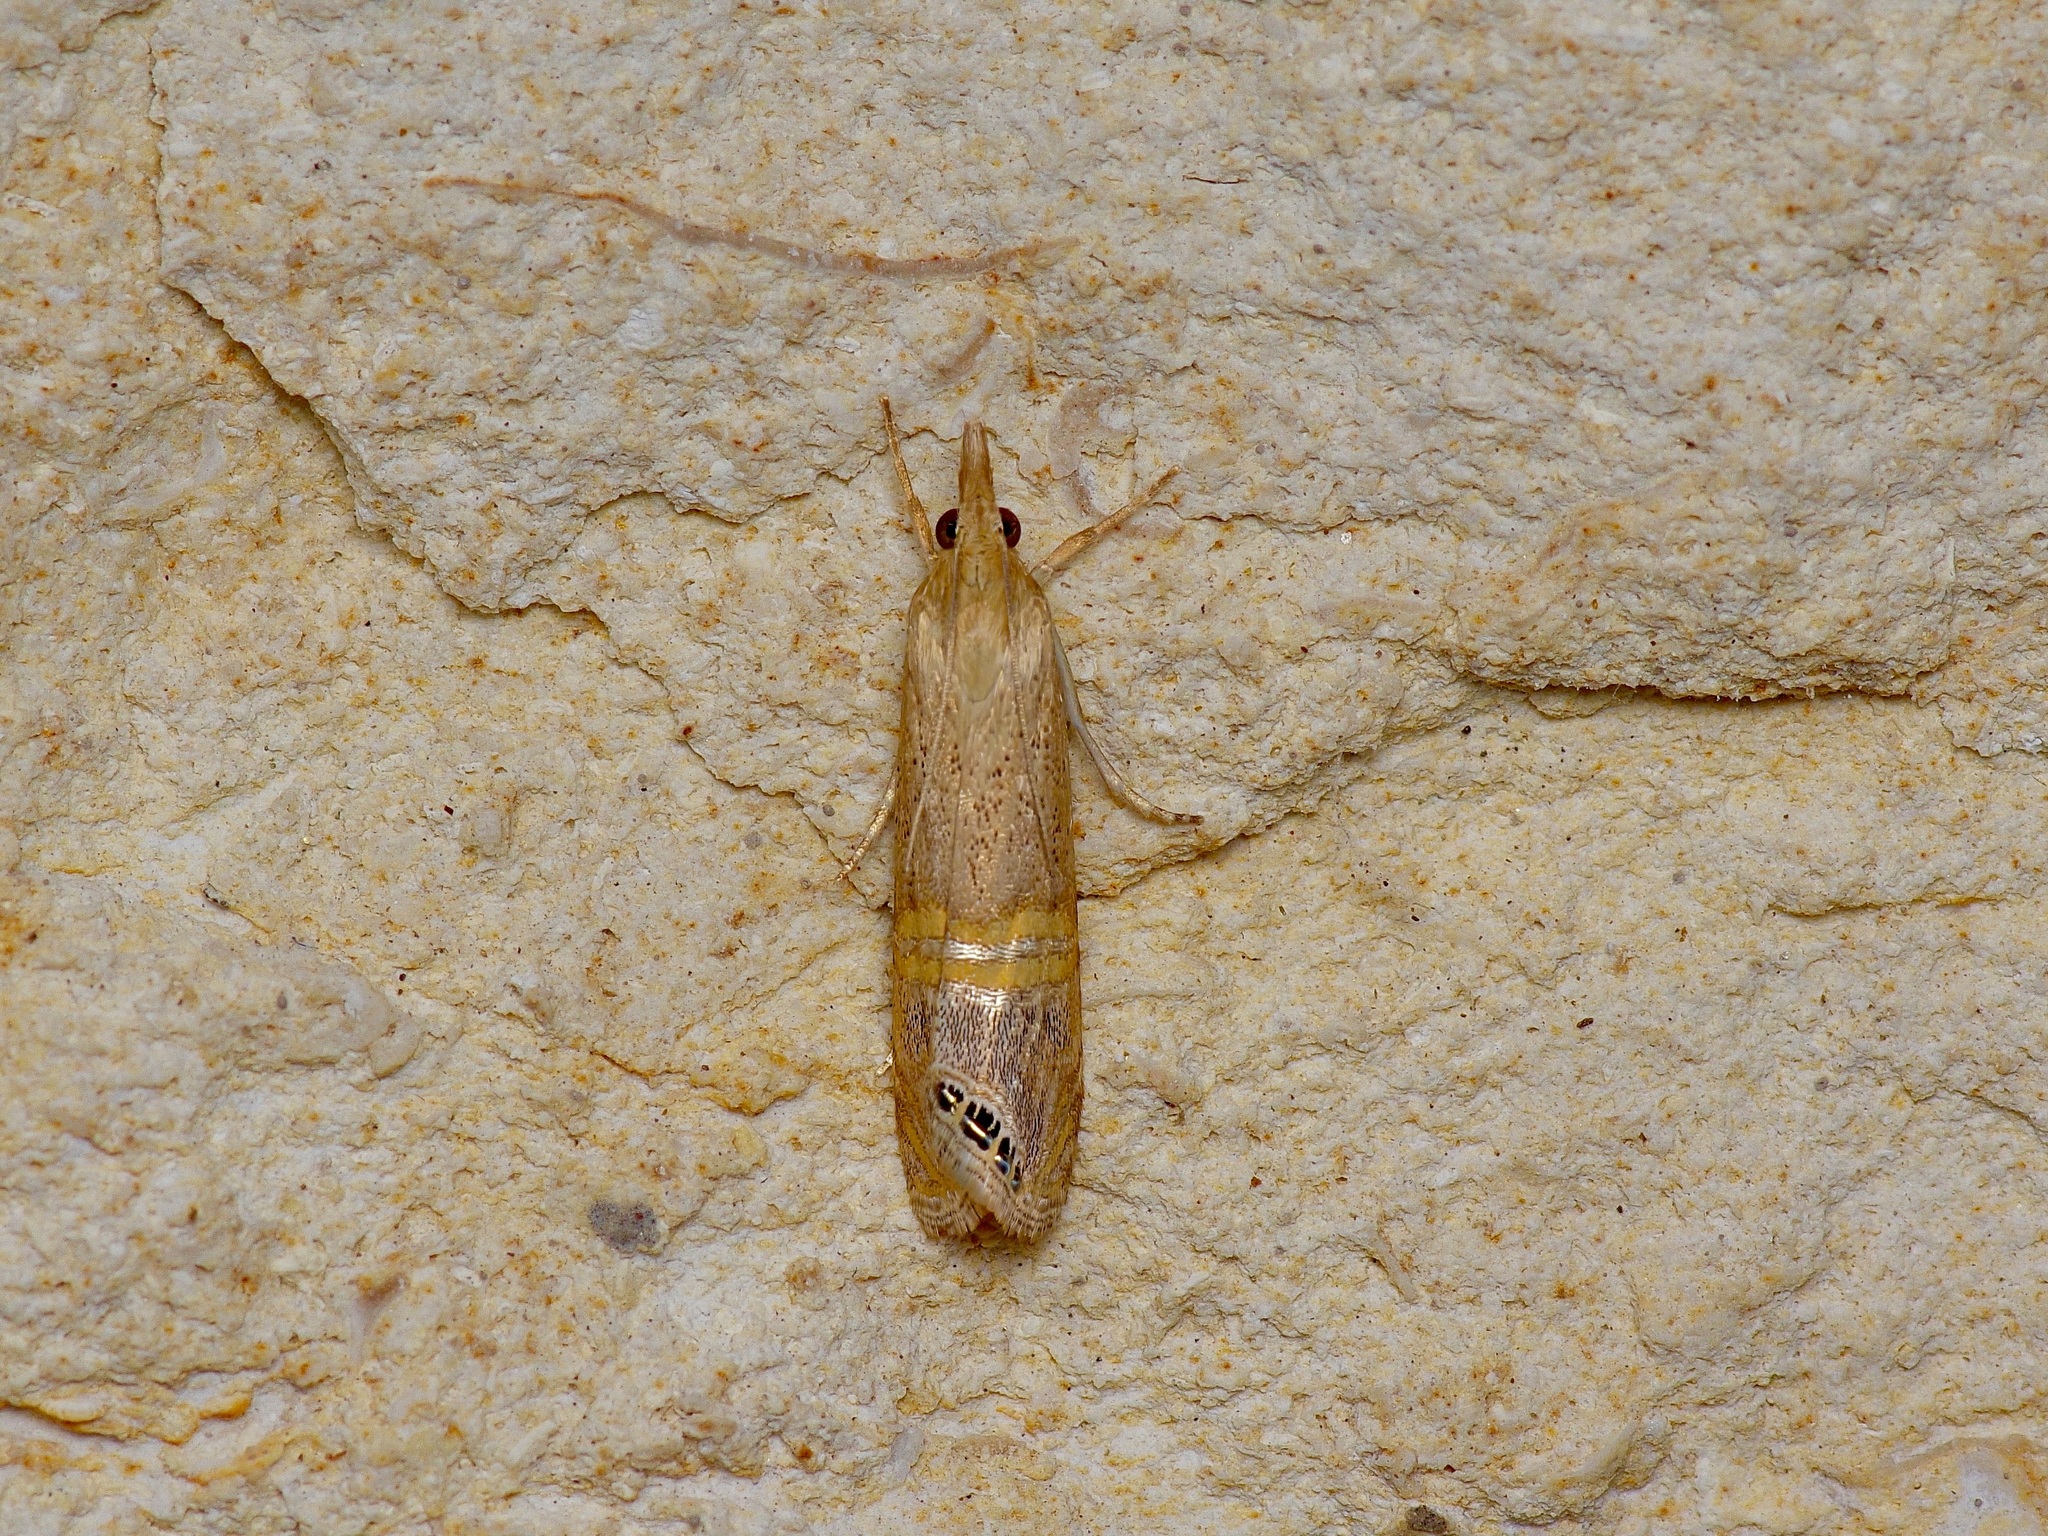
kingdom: Animalia
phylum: Arthropoda
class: Insecta
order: Lepidoptera
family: Crambidae
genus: Euchromius
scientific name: Euchromius ocellea
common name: Necklace veneer moth
